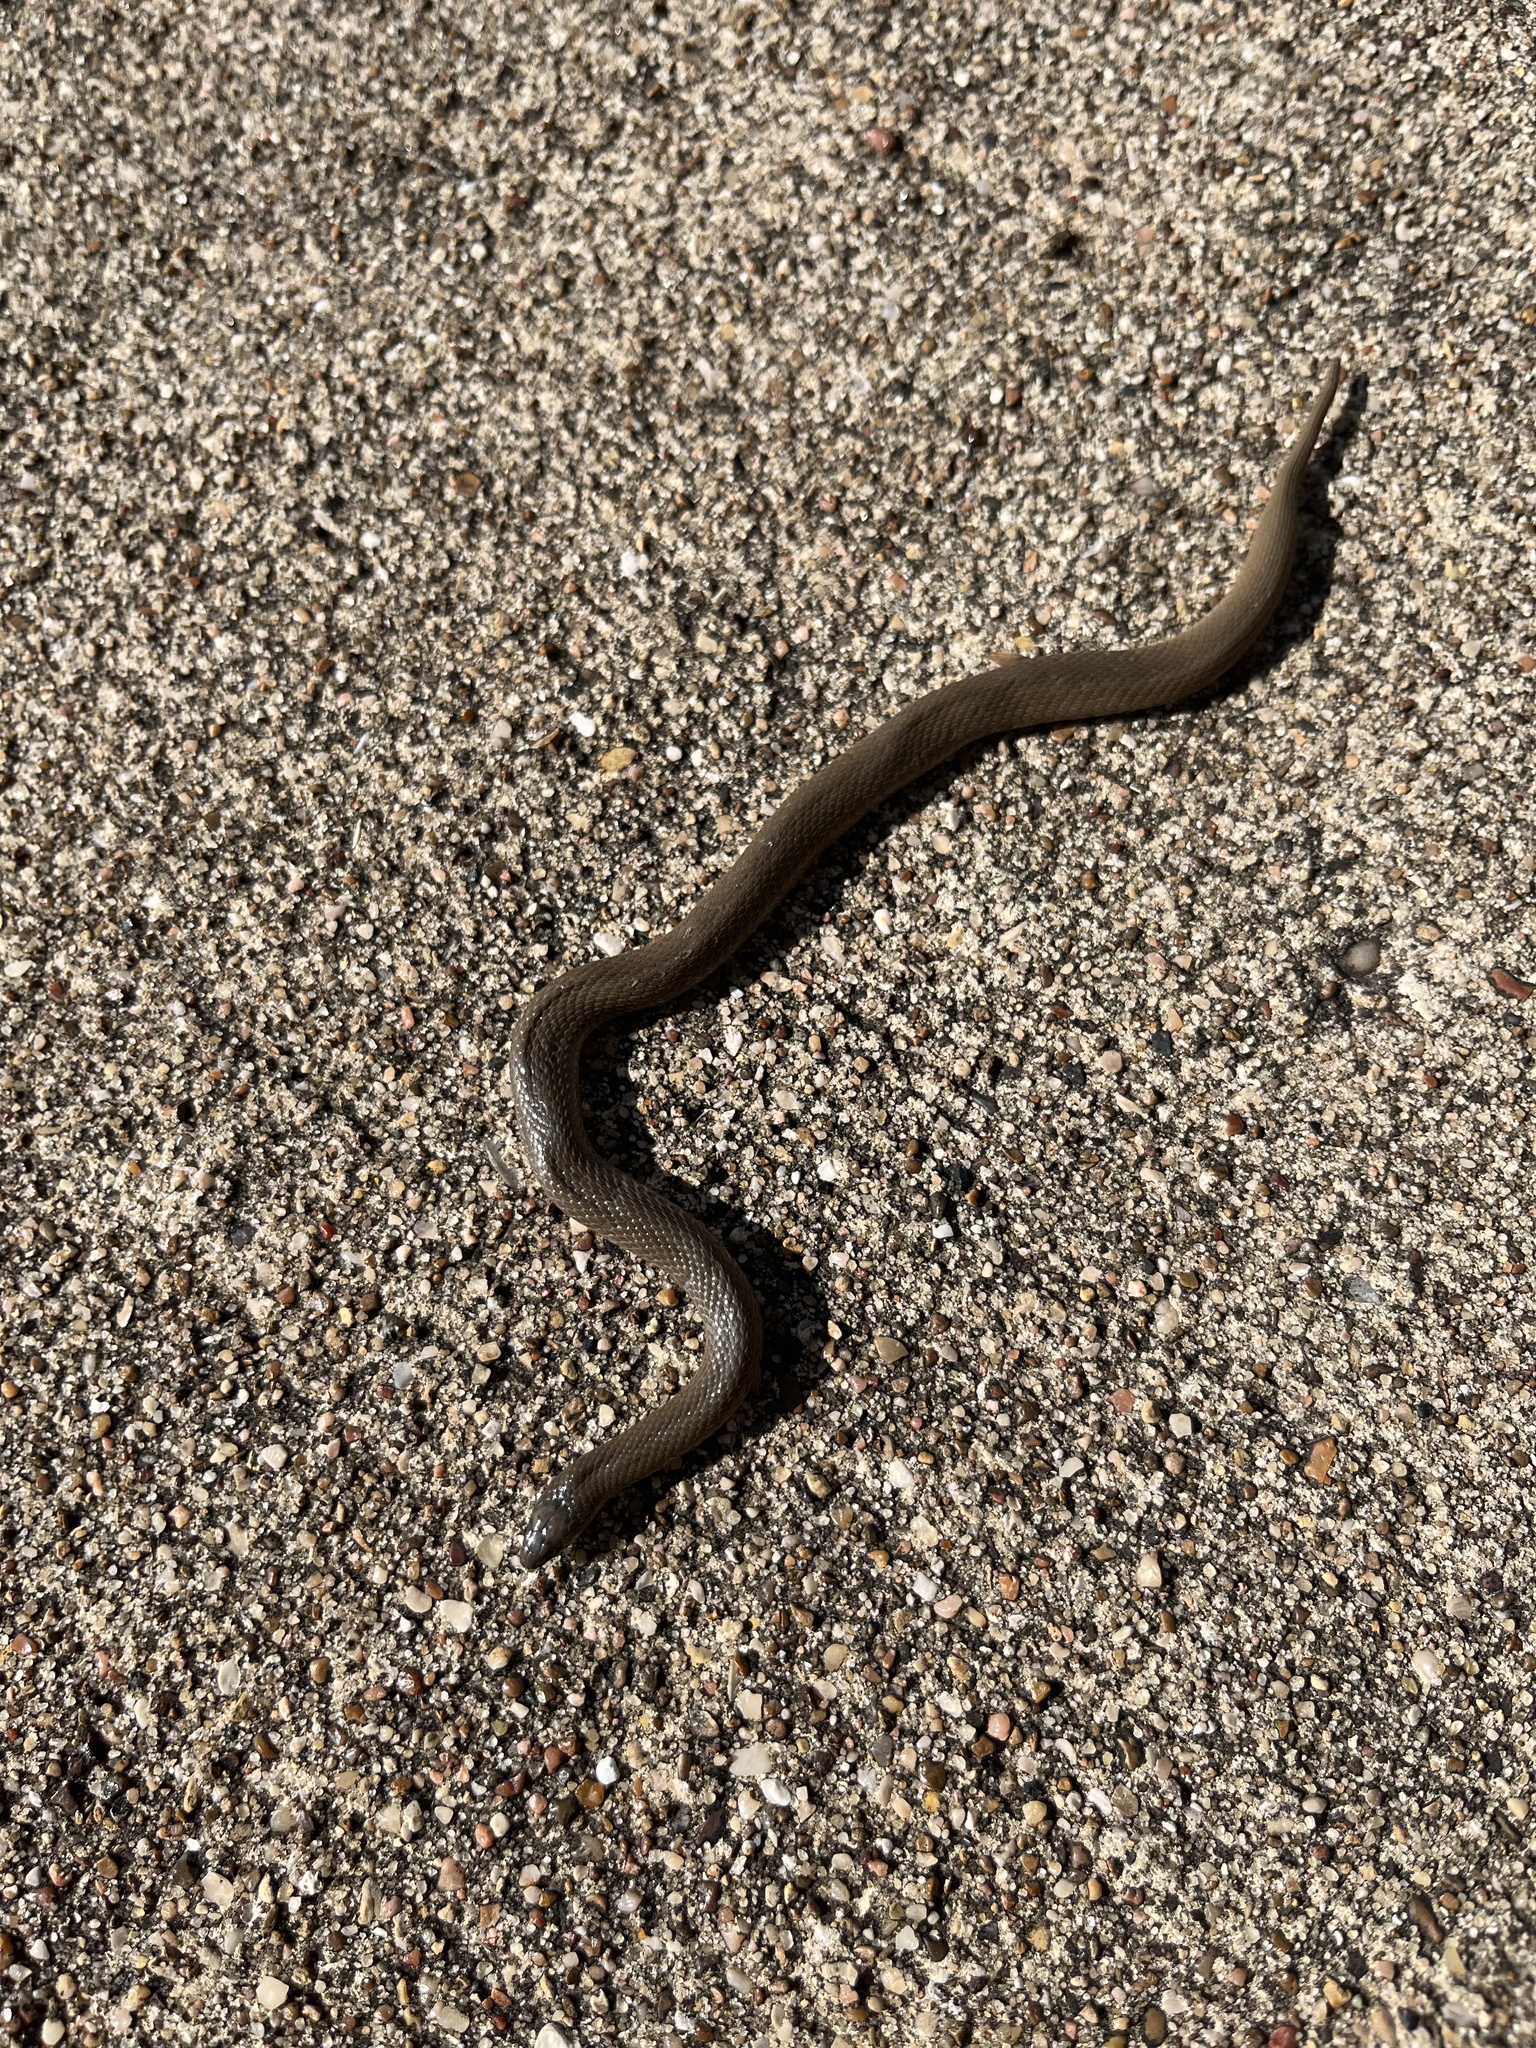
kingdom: Animalia
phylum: Chordata
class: Squamata
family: Colubridae
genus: Haldea
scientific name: Haldea striatula
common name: Rough earth snake
